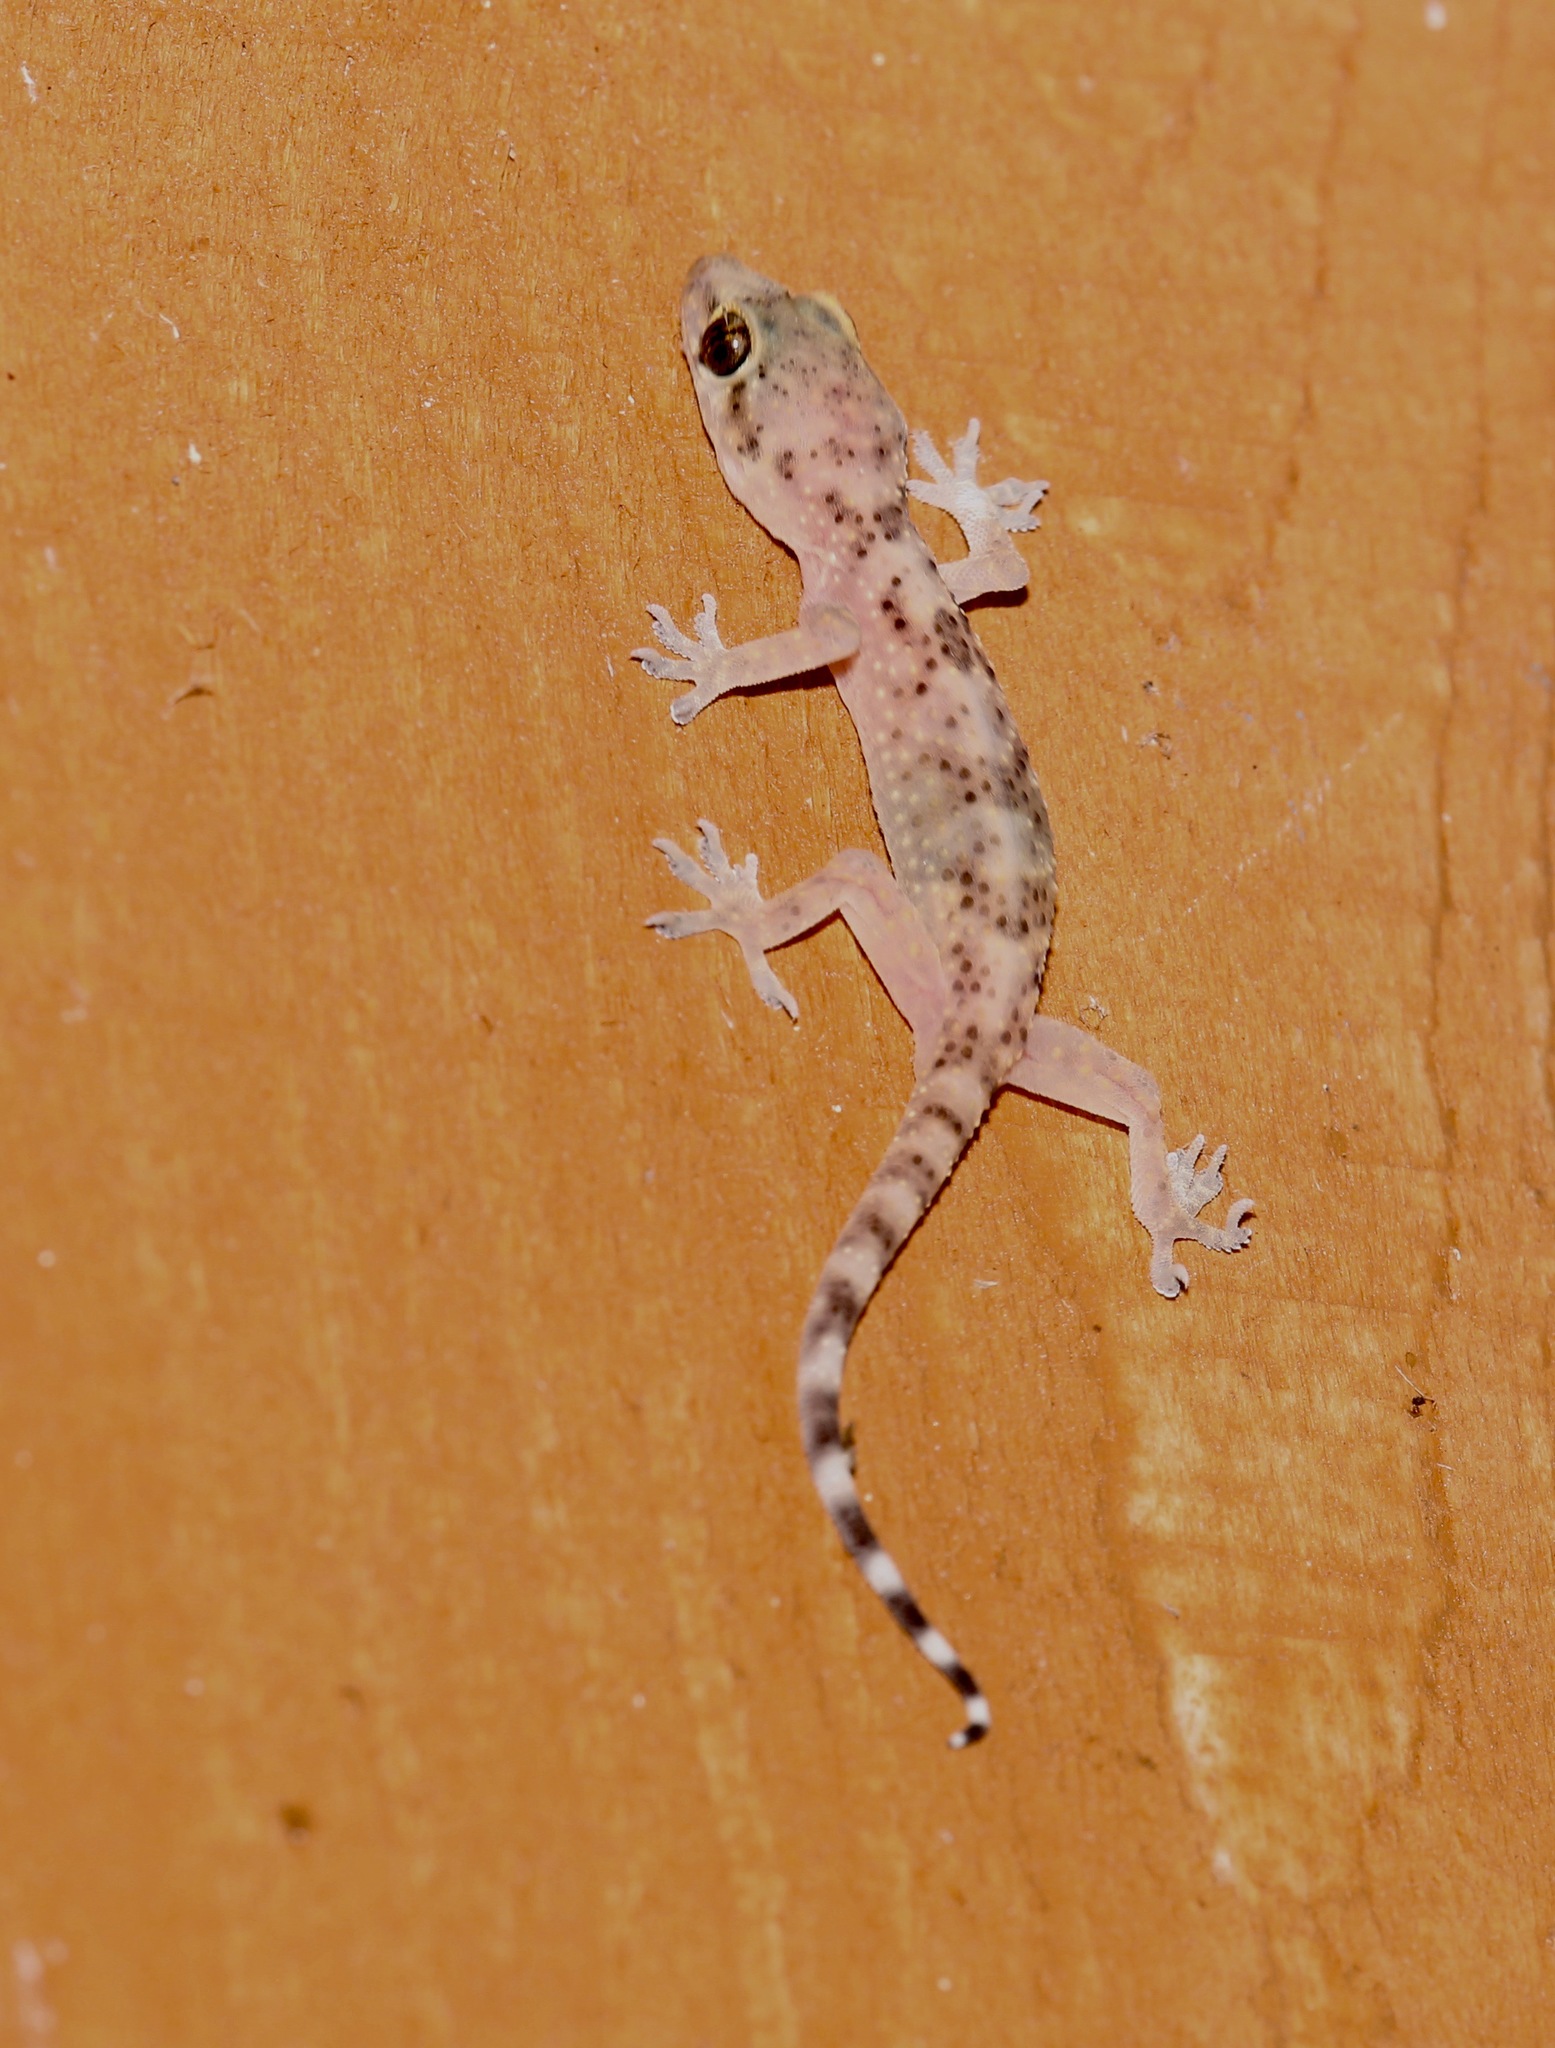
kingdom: Animalia
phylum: Chordata
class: Squamata
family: Gekkonidae
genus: Hemidactylus
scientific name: Hemidactylus turcicus
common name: Turkish gecko
